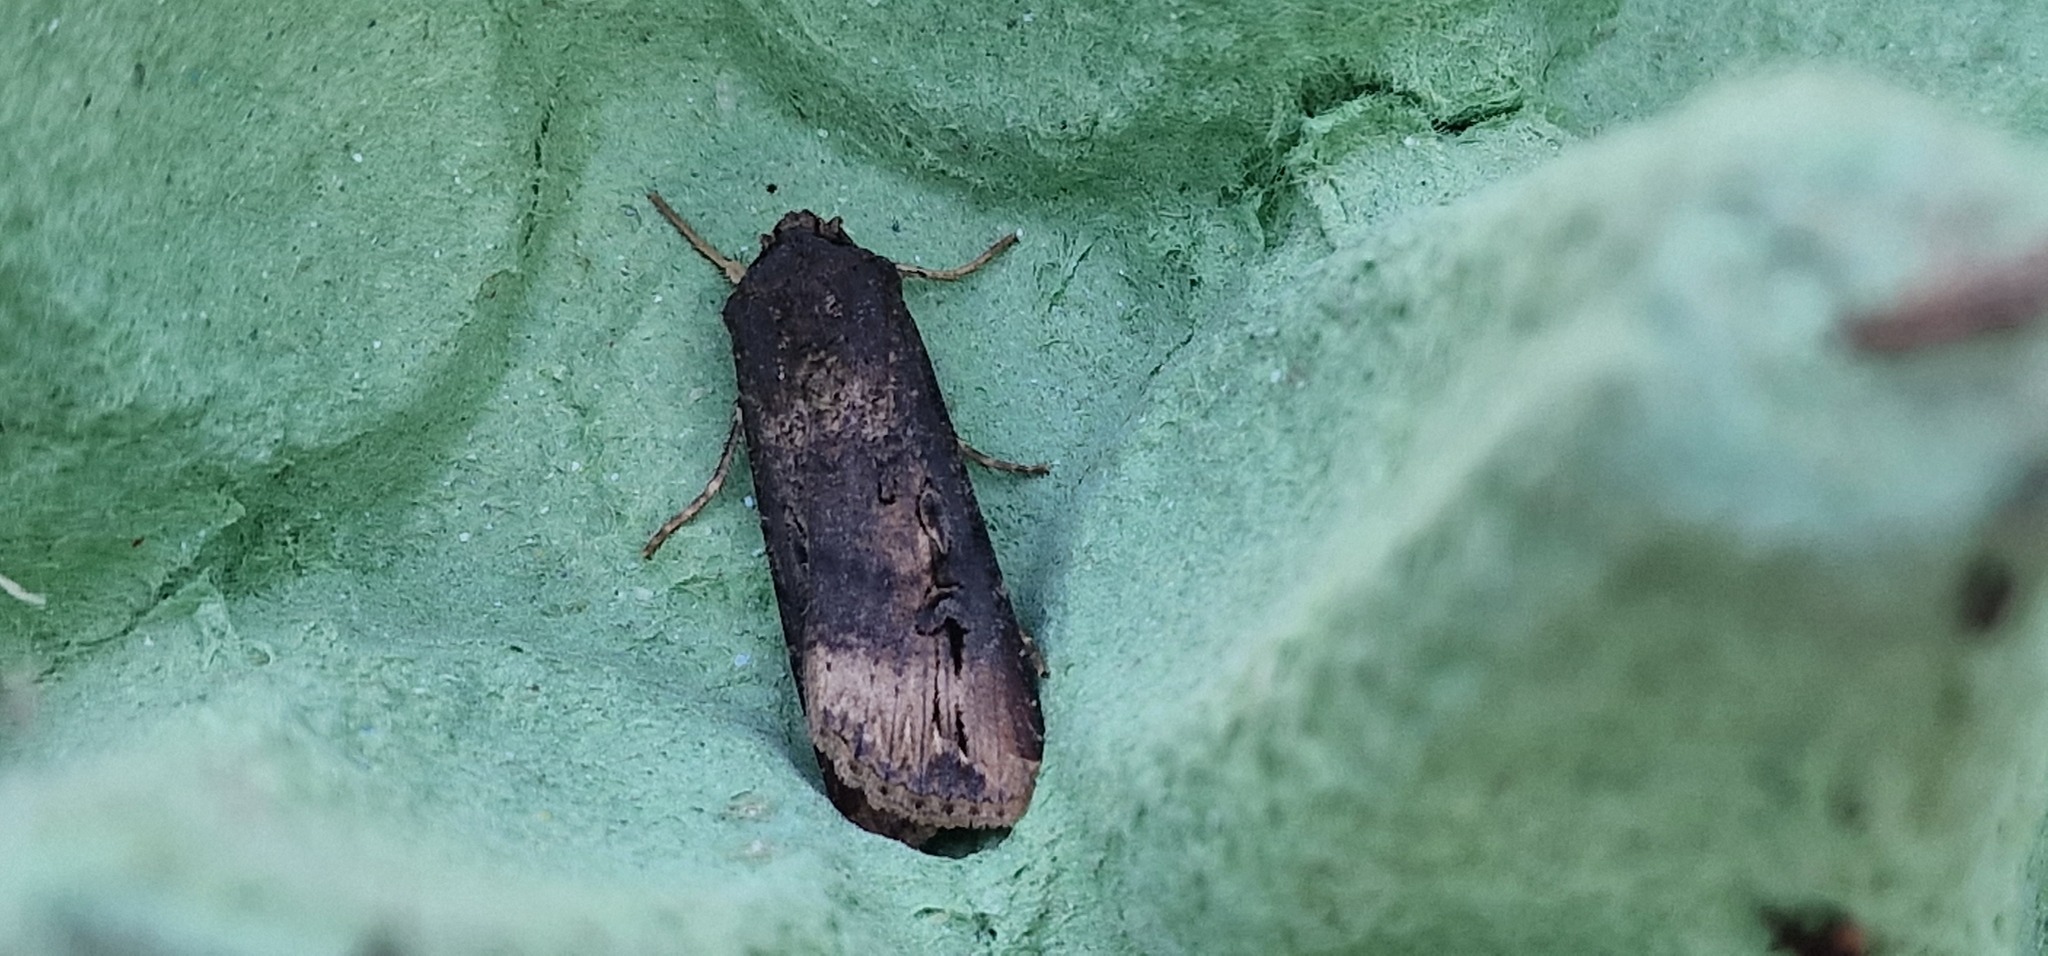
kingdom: Animalia
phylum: Arthropoda
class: Insecta
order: Lepidoptera
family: Noctuidae
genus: Agrotis
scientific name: Agrotis ipsilon
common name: Dark sword-grass
